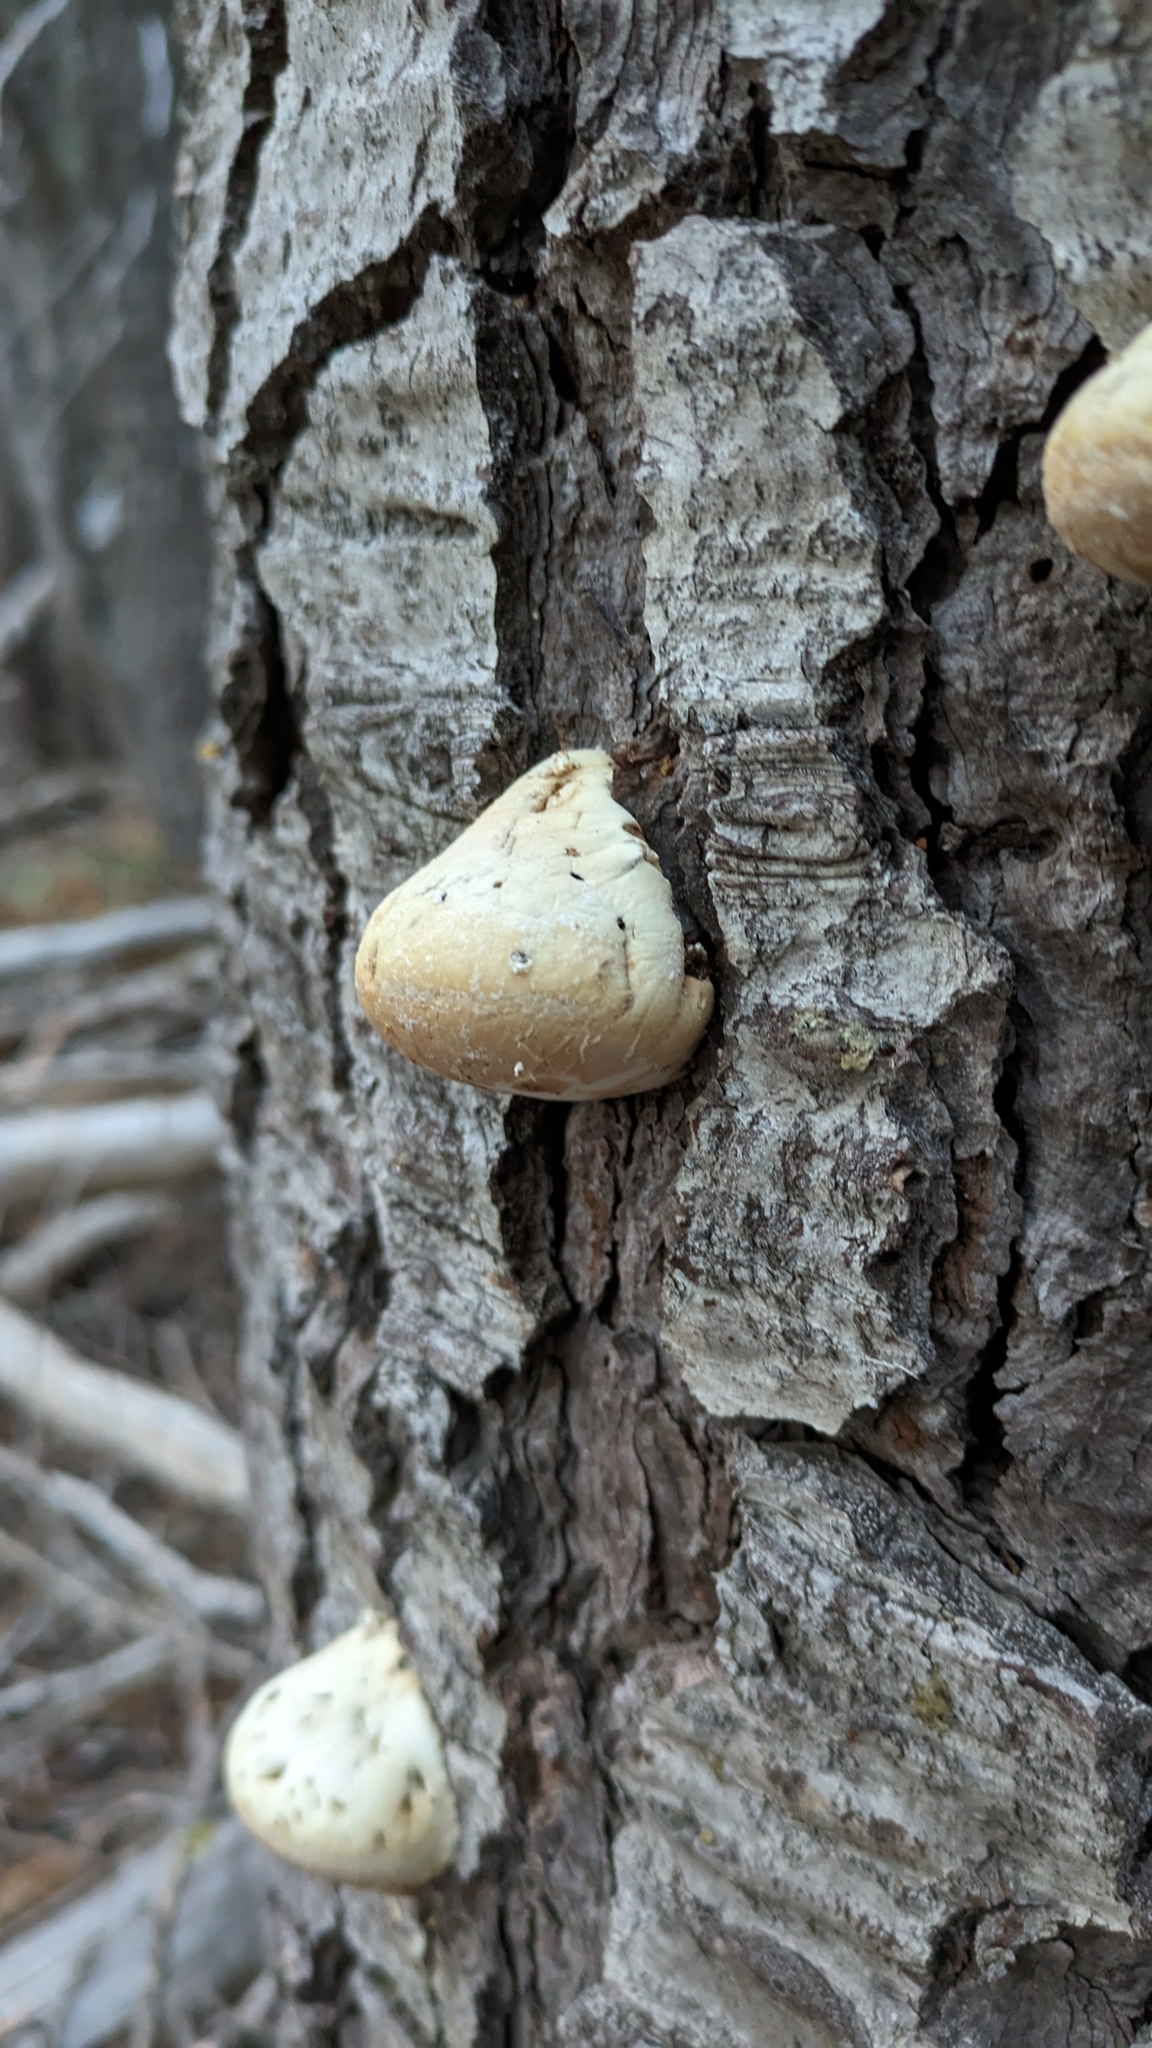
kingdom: Fungi
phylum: Basidiomycota
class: Agaricomycetes
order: Polyporales
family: Polyporaceae
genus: Cryptoporus
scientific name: Cryptoporus volvatus
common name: Veiled polypore
